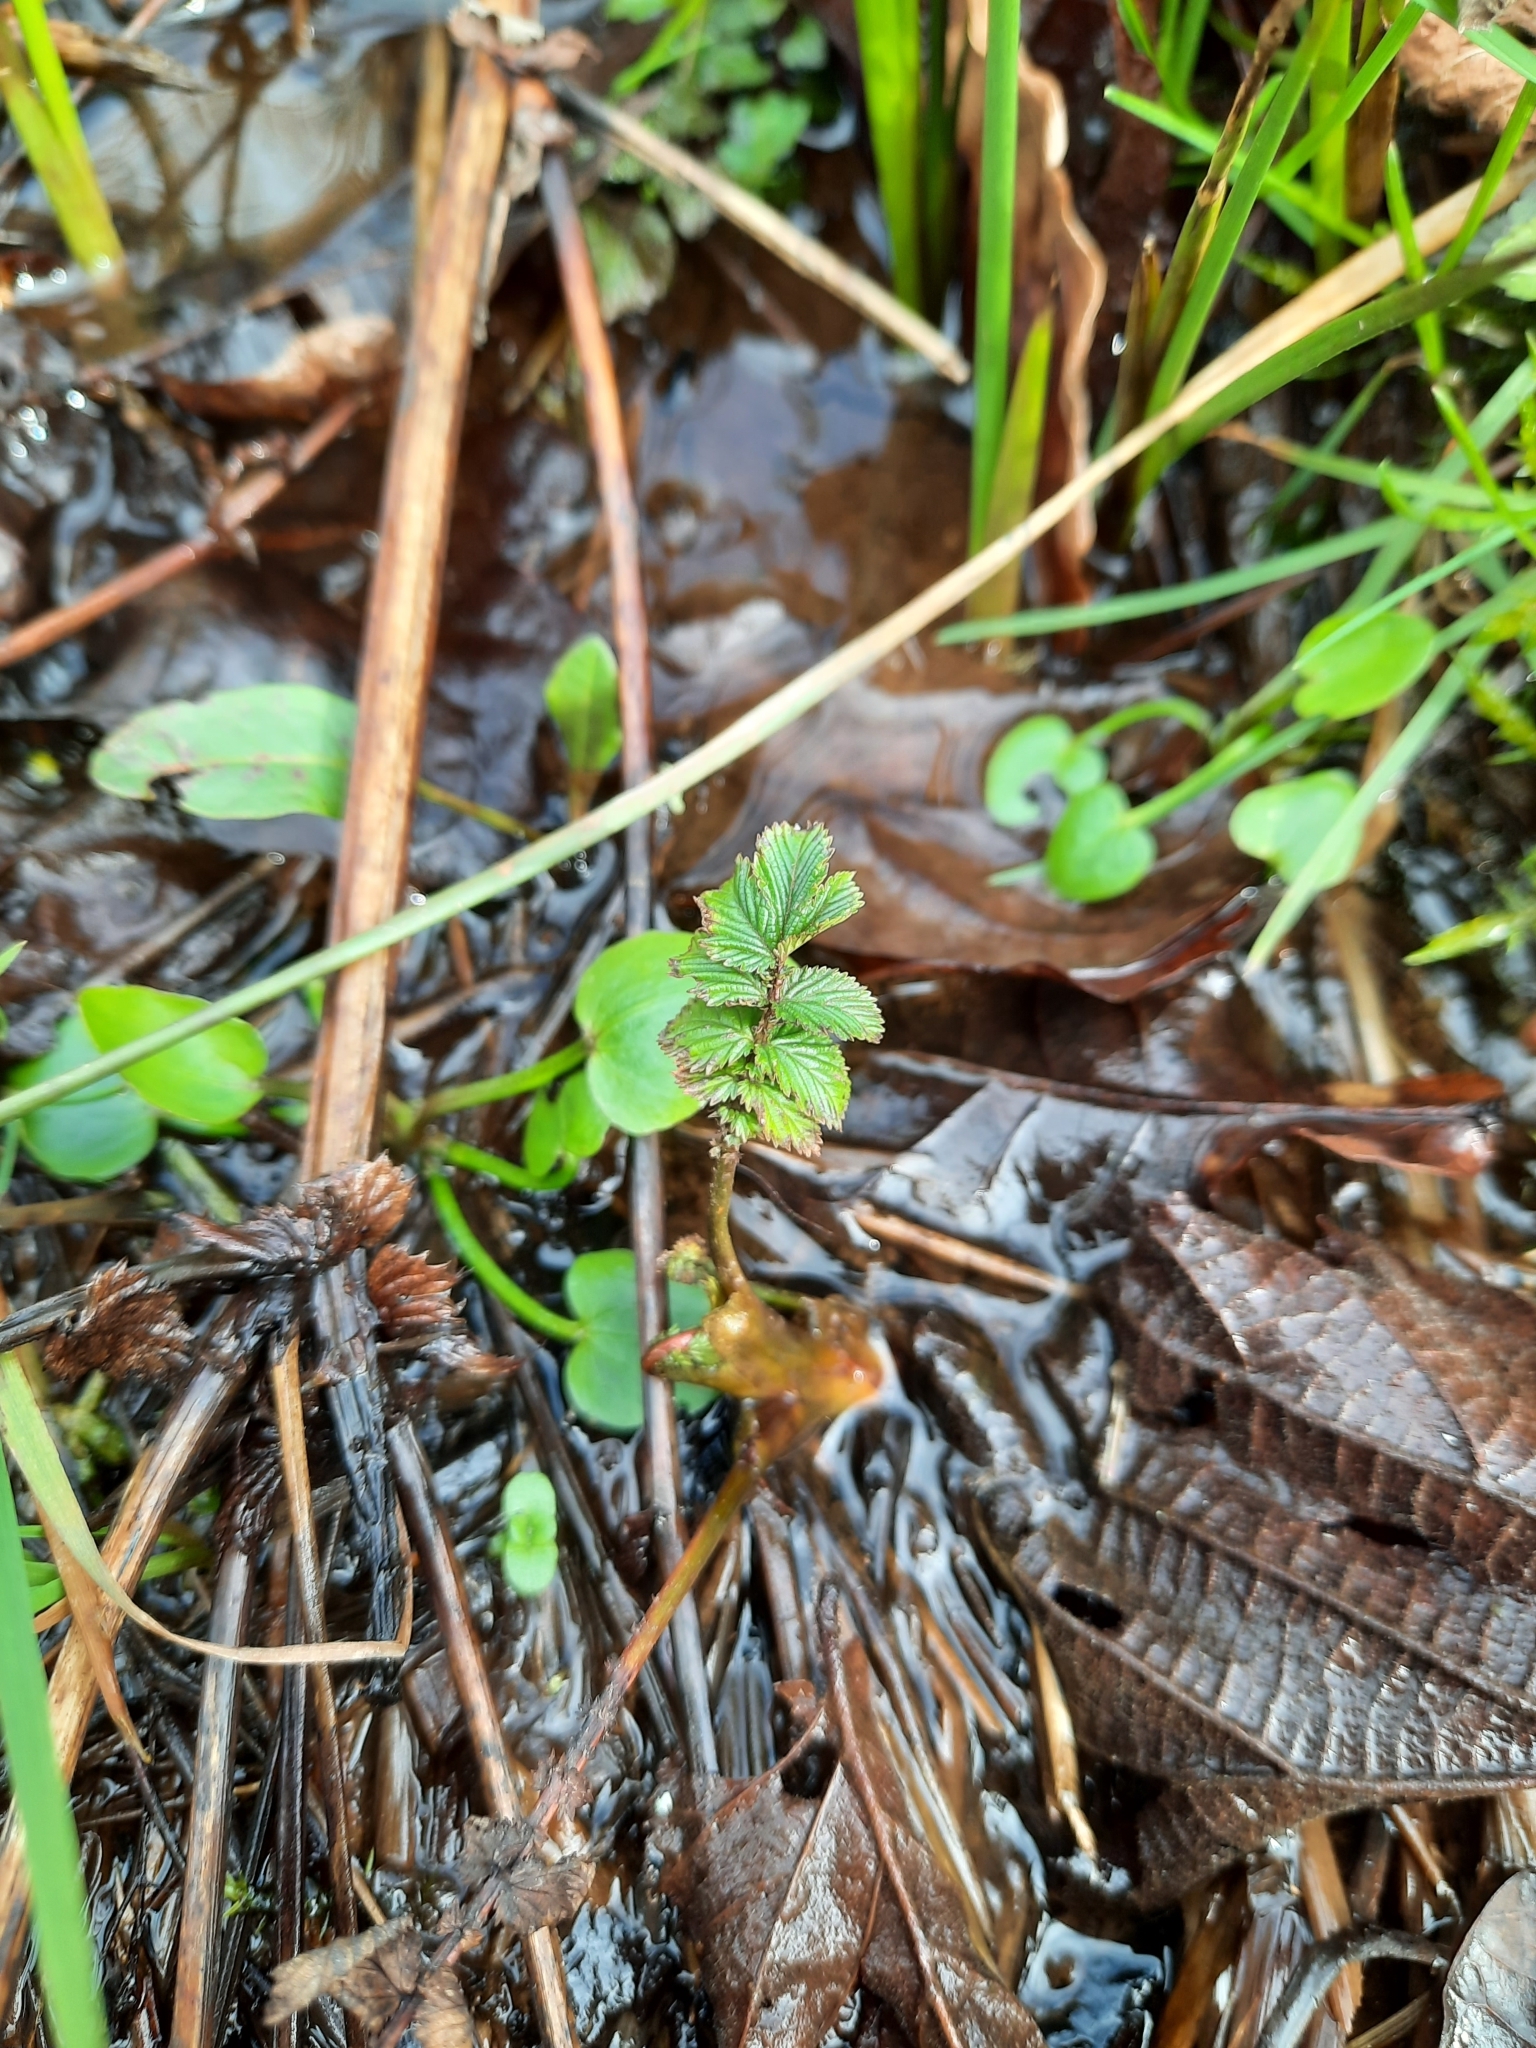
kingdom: Plantae
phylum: Tracheophyta
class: Magnoliopsida
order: Rosales
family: Rosaceae
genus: Filipendula
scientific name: Filipendula ulmaria
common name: Meadowsweet
